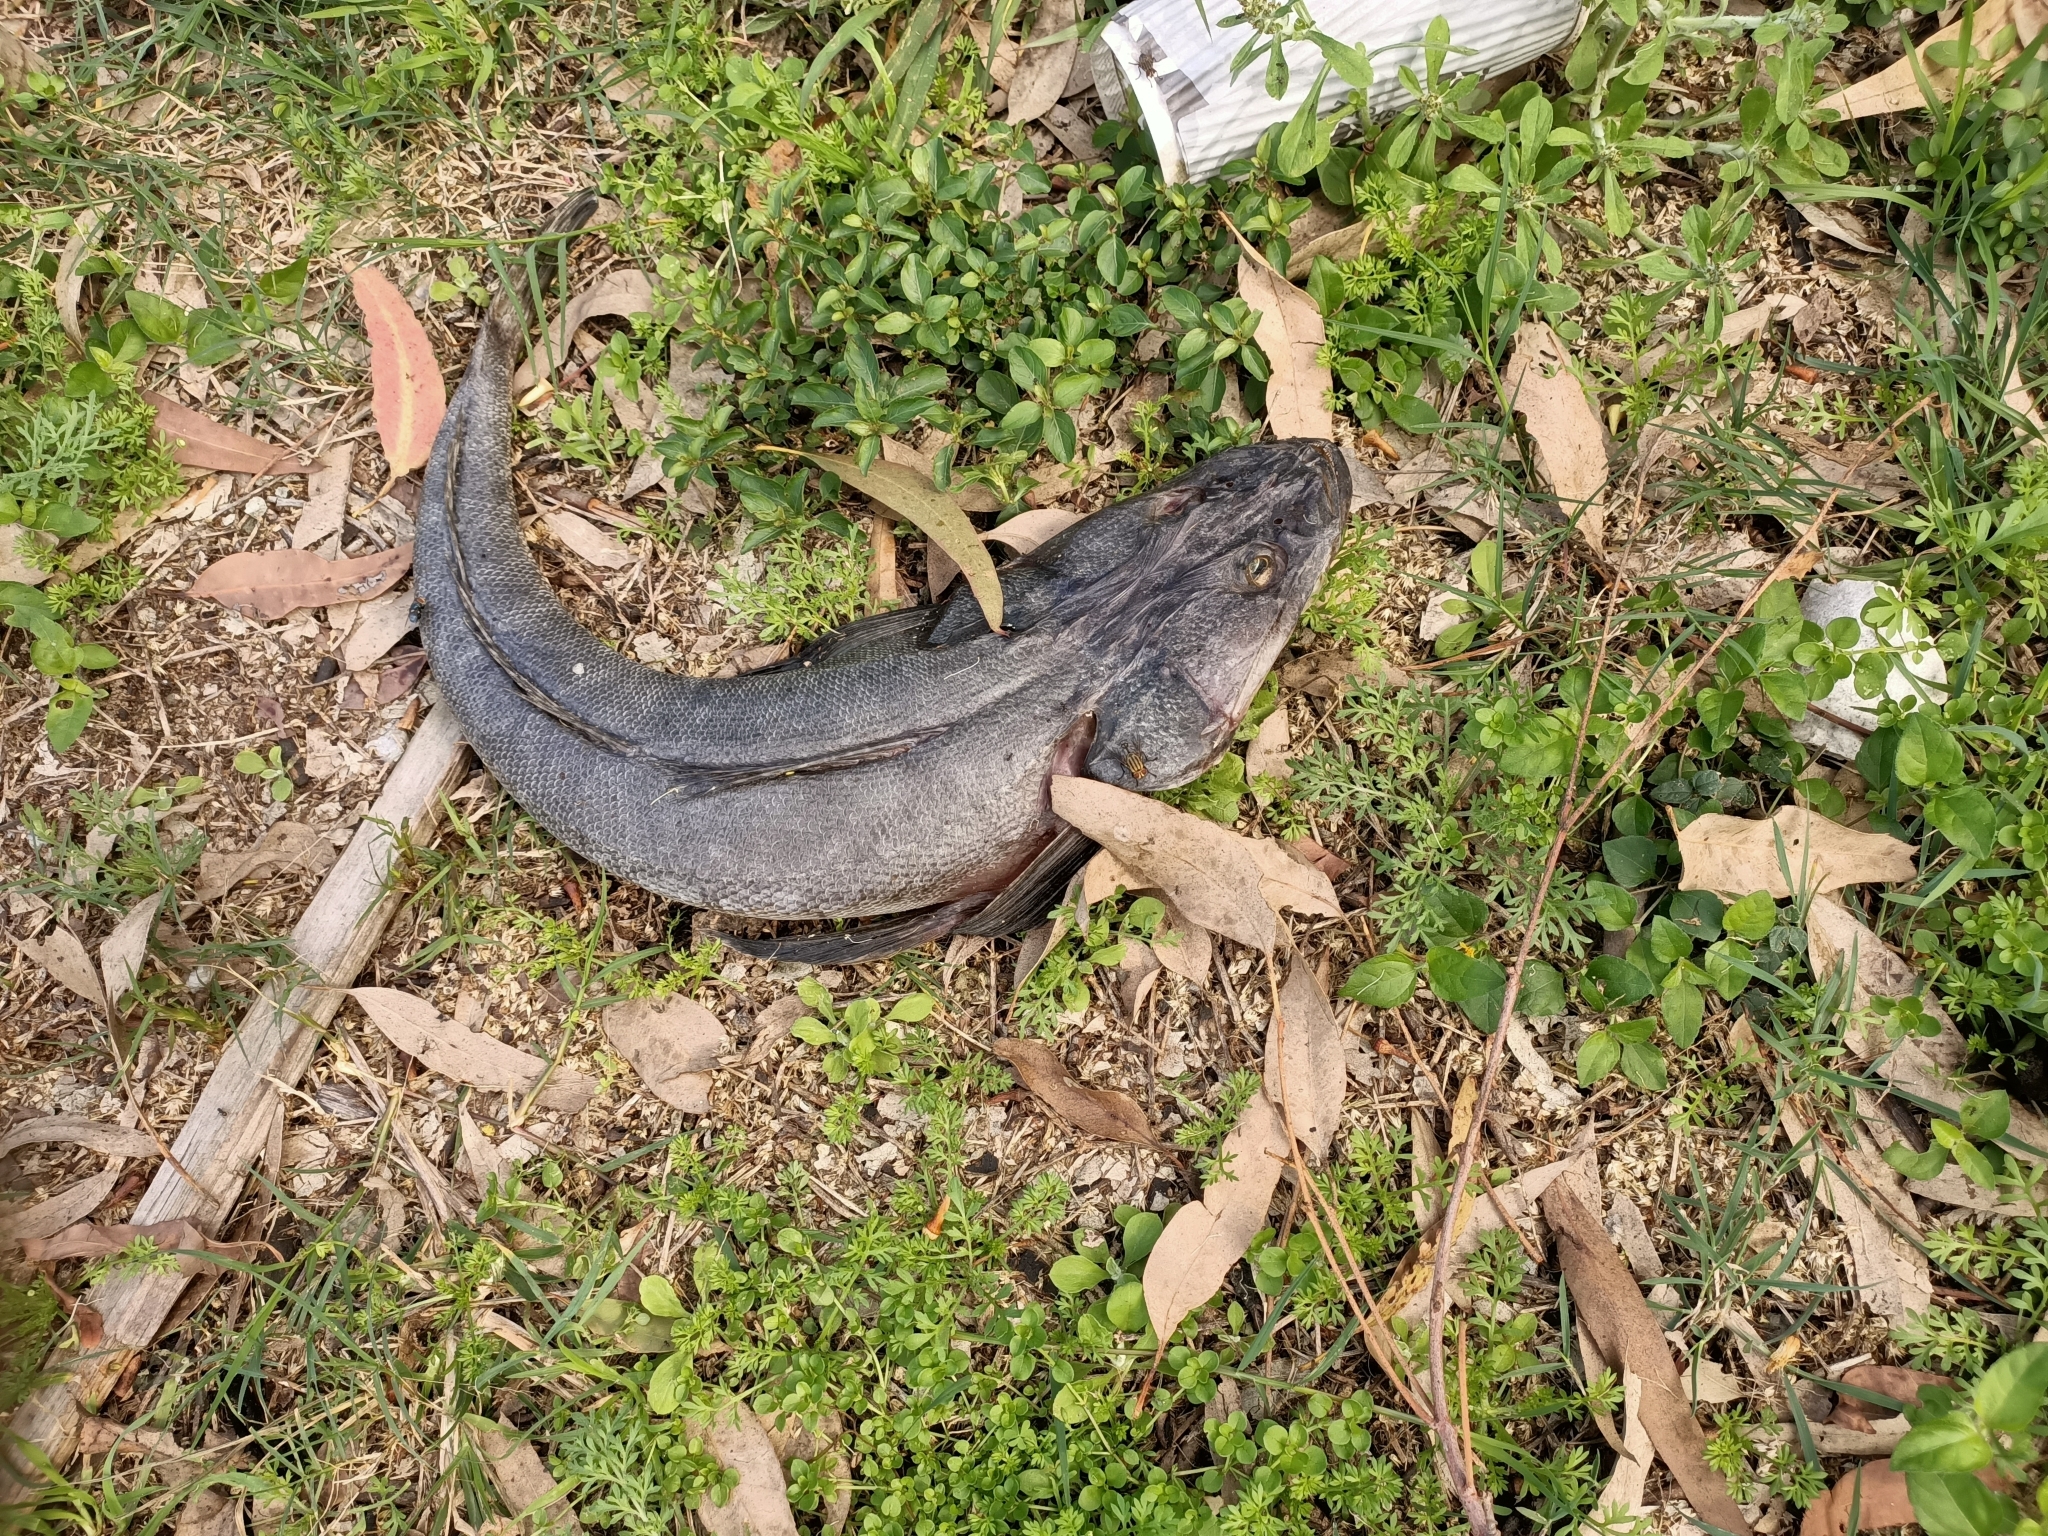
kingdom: Animalia
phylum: Chordata
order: Scorpaeniformes
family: Platycephalidae
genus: Platycephalus
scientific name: Platycephalus fuscus
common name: Dusky flathead
